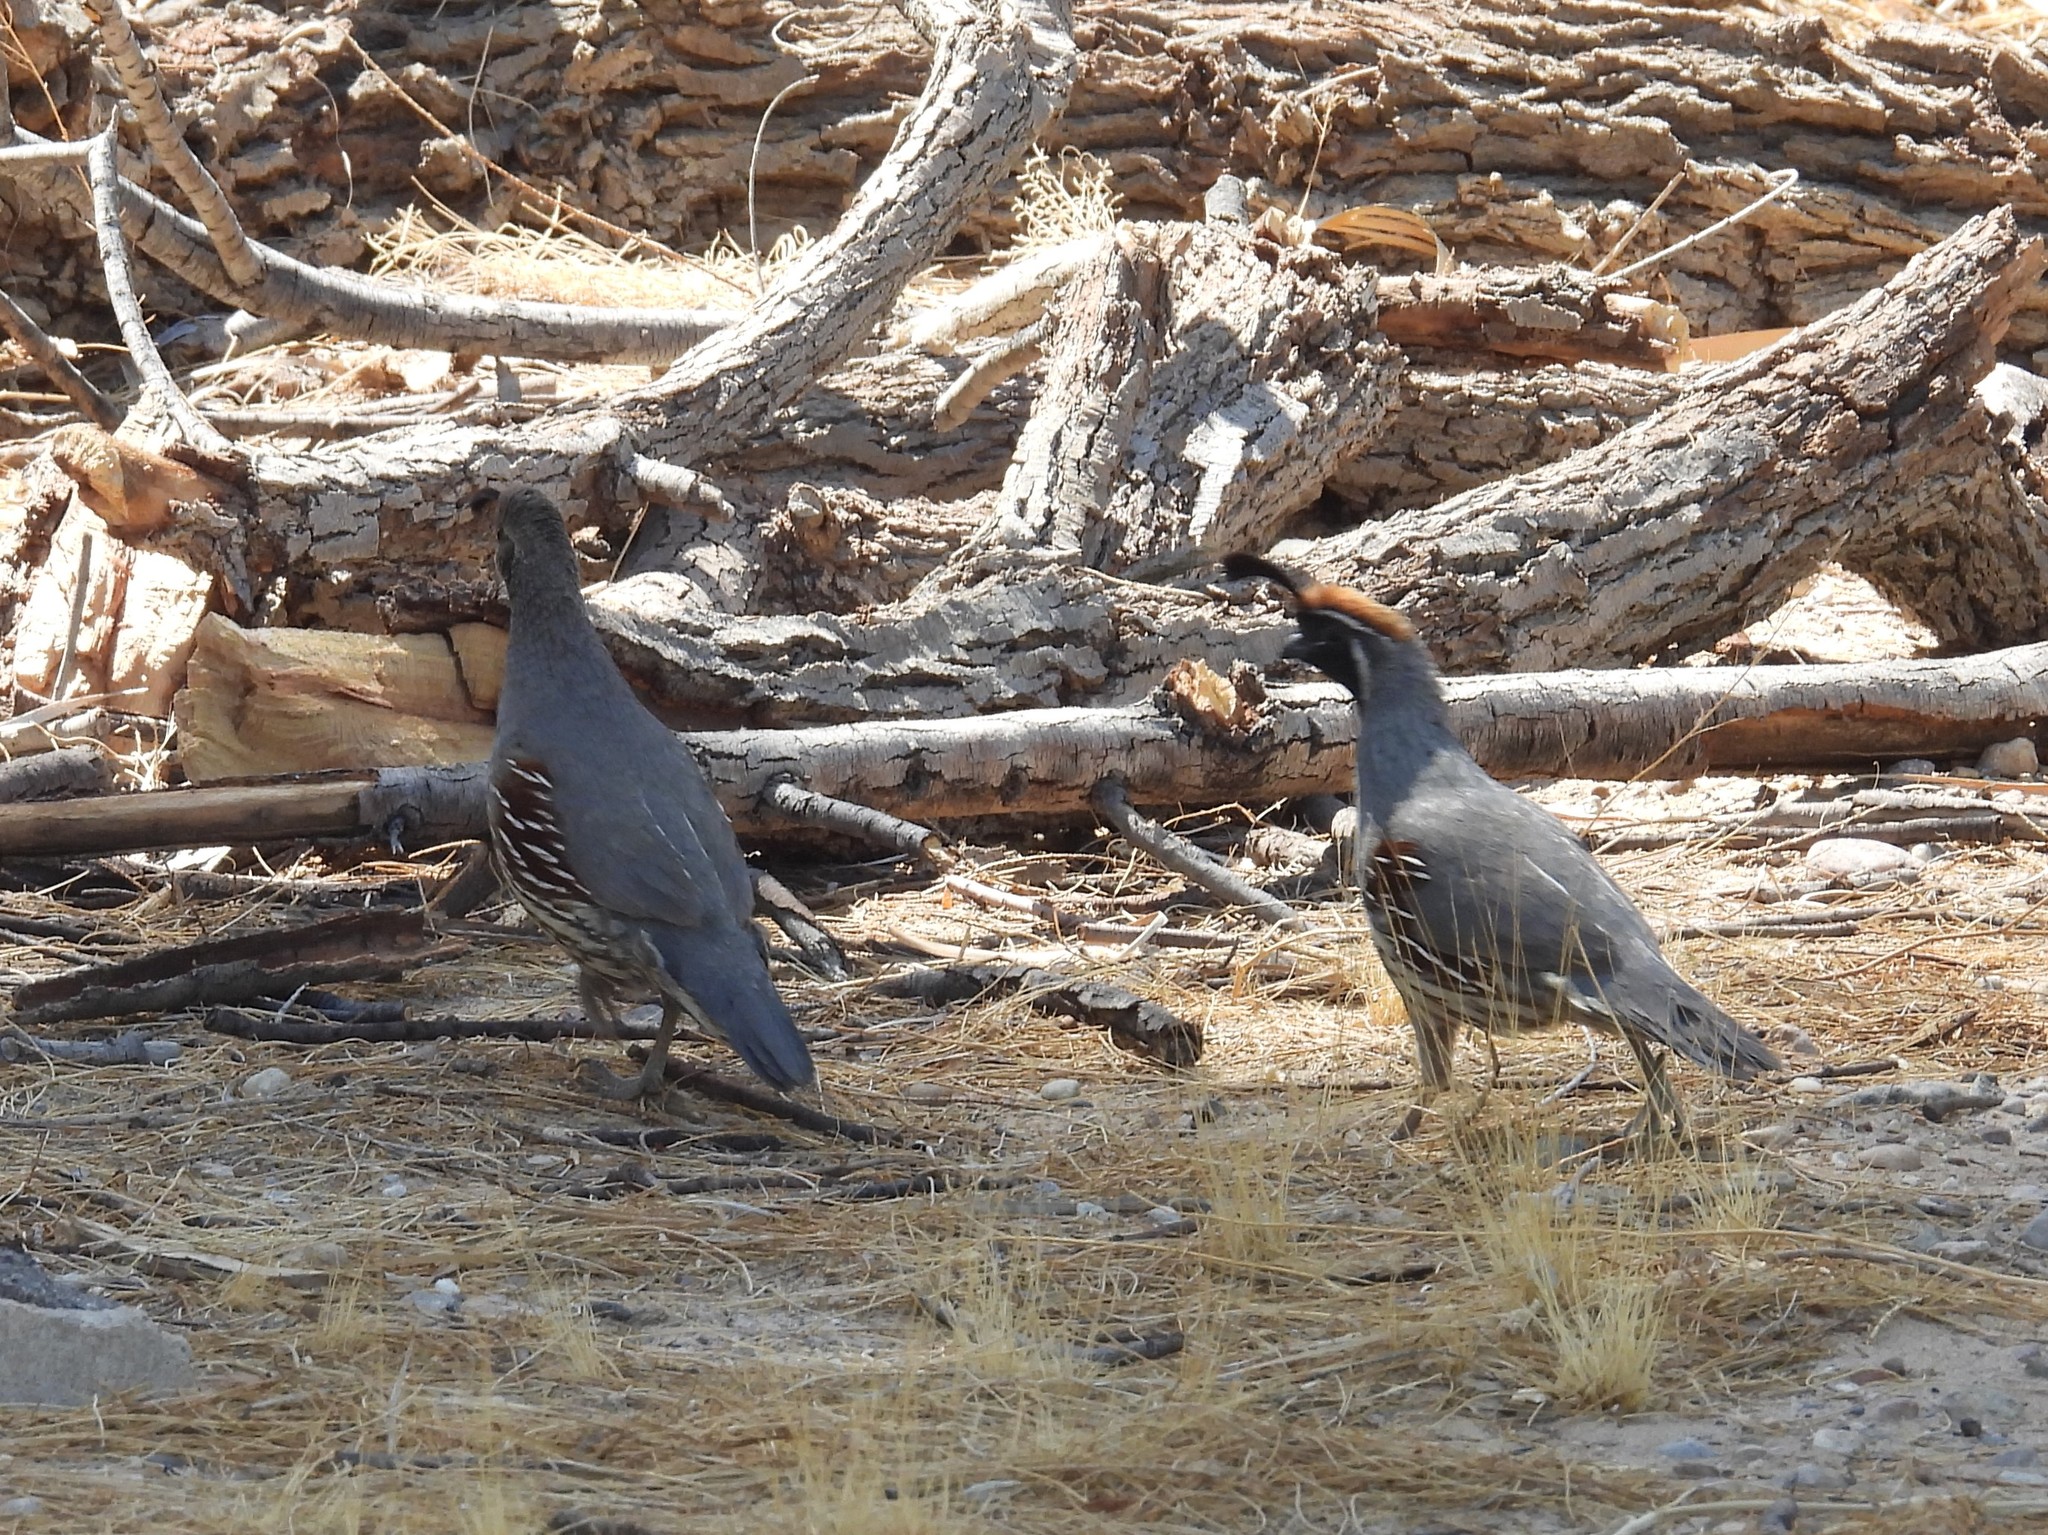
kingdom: Animalia
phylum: Chordata
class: Aves
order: Galliformes
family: Odontophoridae
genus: Callipepla
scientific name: Callipepla gambelii
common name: Gambel's quail
